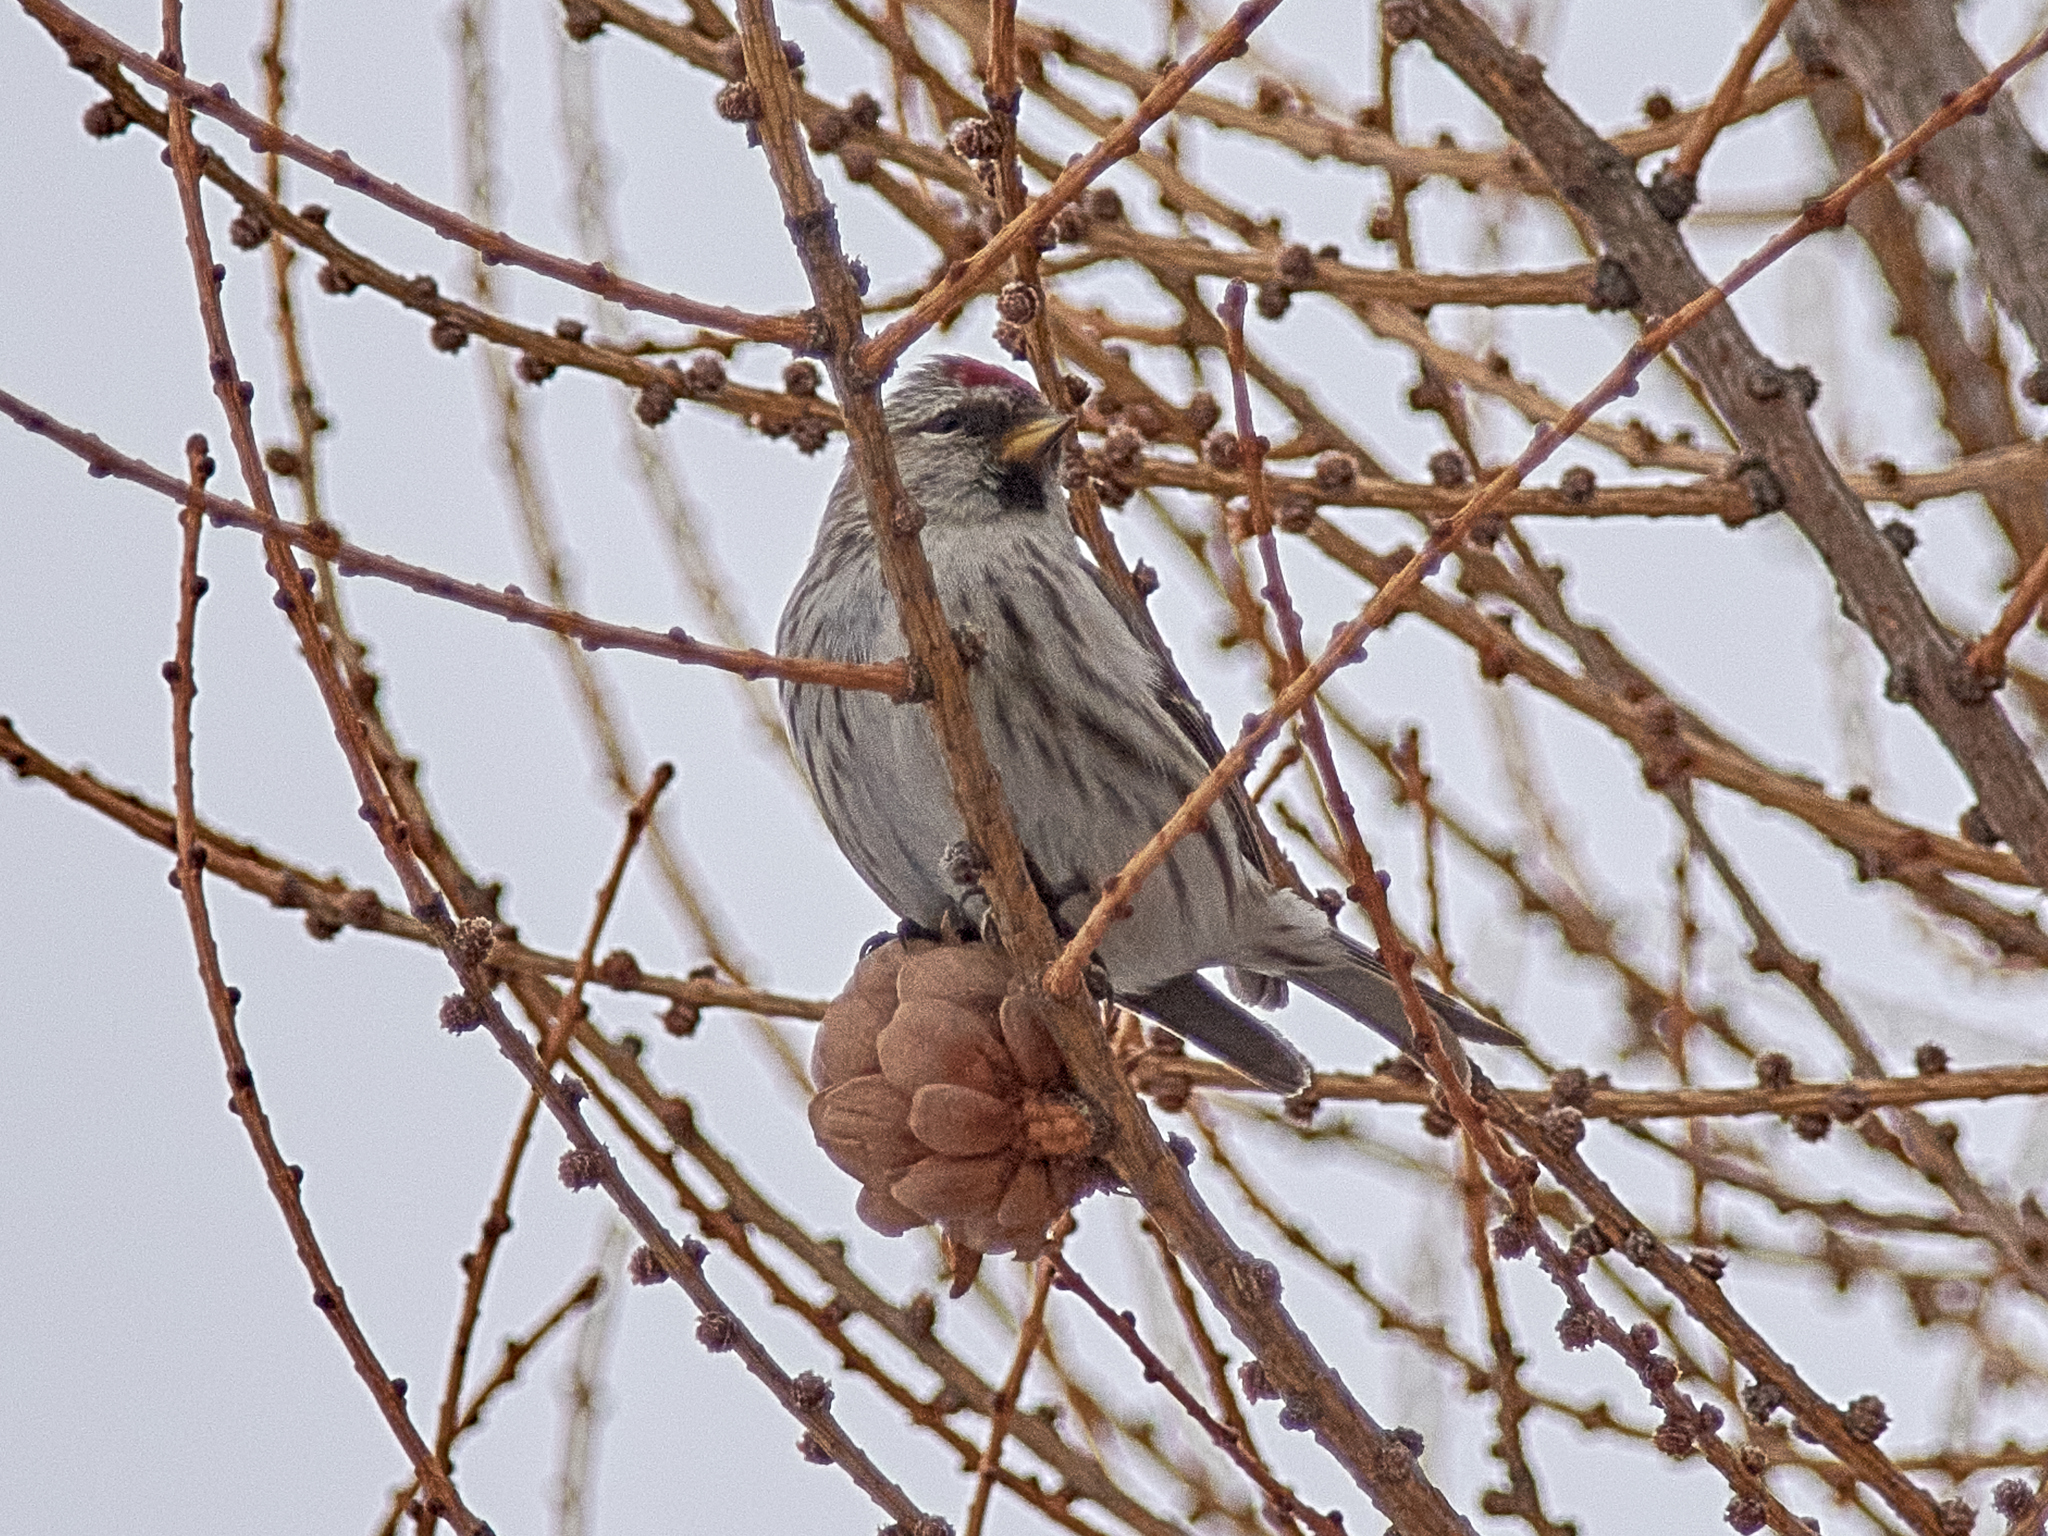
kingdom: Animalia
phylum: Chordata
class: Aves
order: Passeriformes
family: Fringillidae
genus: Acanthis
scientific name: Acanthis flammea
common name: Common redpoll
